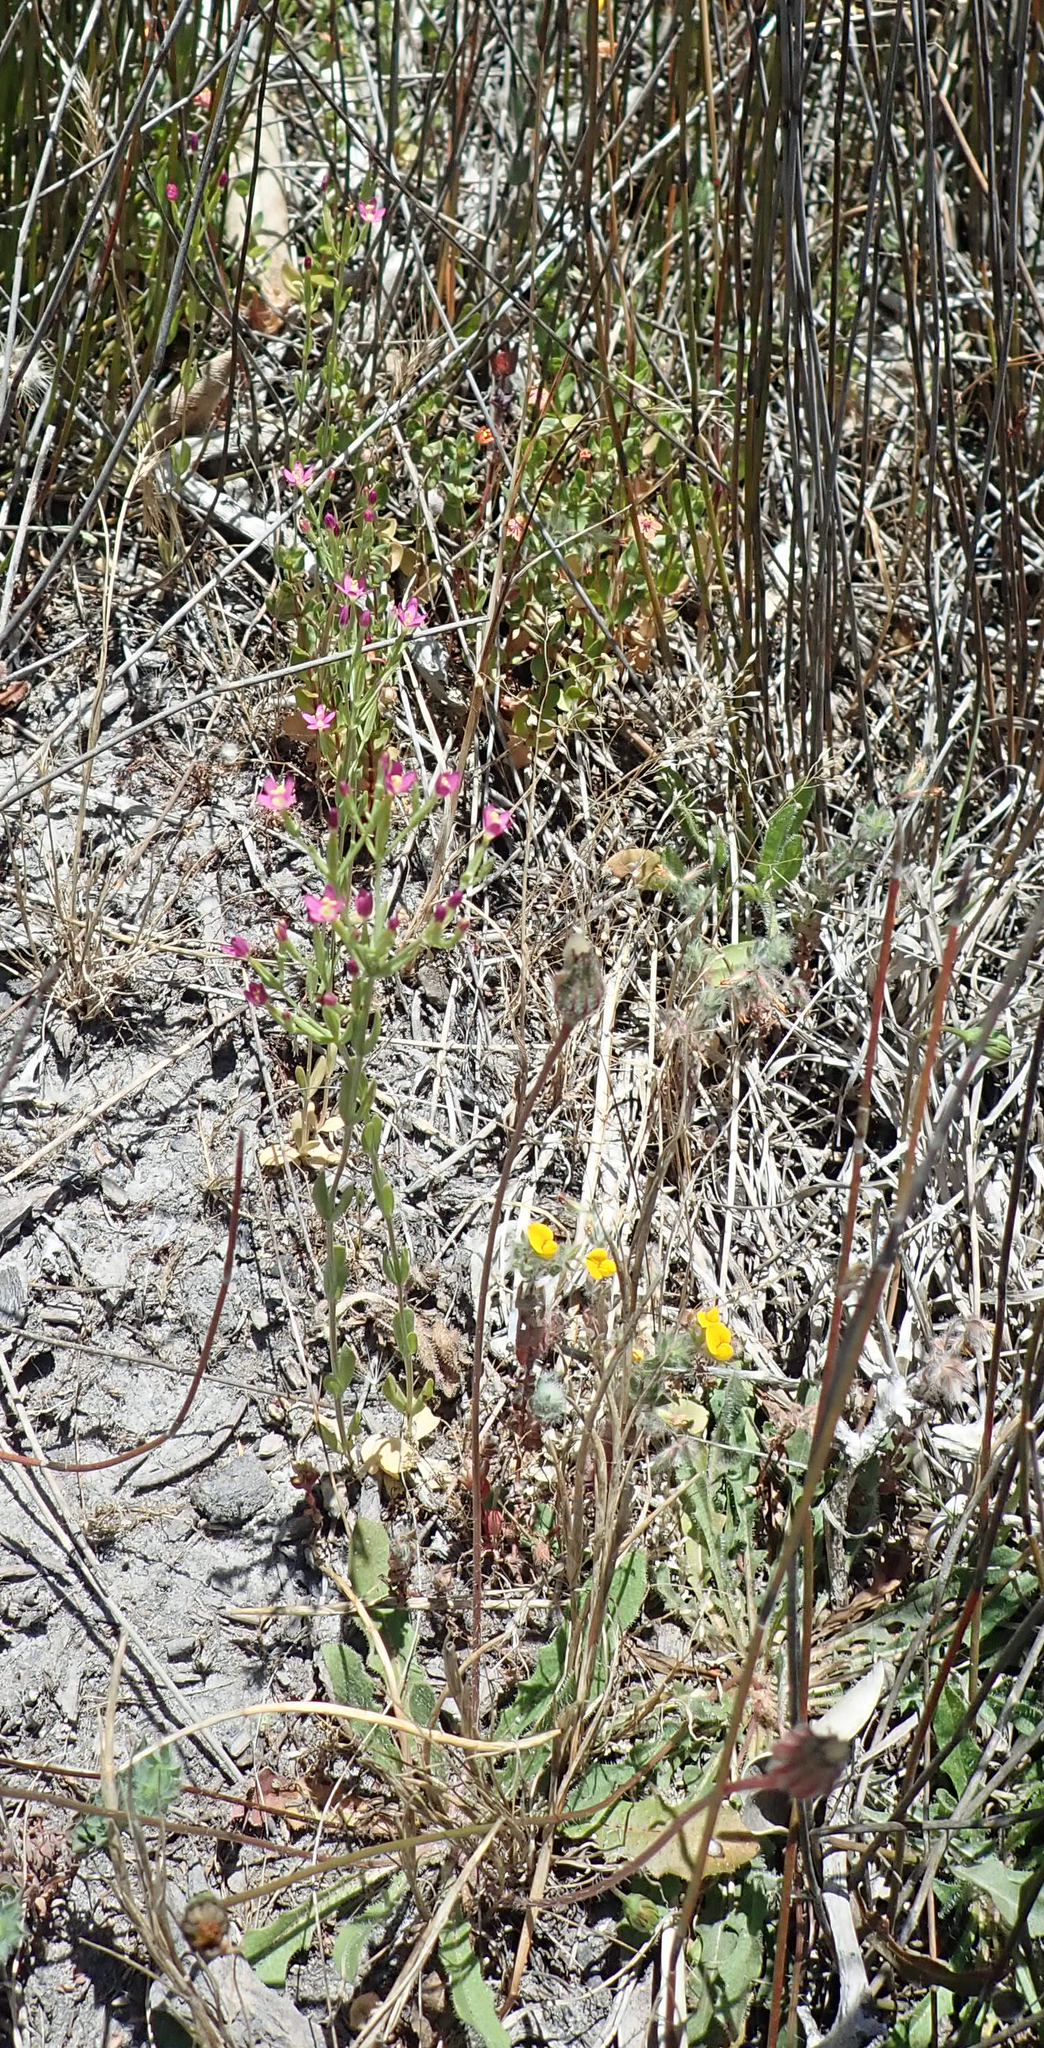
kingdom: Plantae
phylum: Tracheophyta
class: Magnoliopsida
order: Gentianales
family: Gentianaceae
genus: Centaurium
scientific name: Centaurium tenuiflorum
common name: Slender centaury
